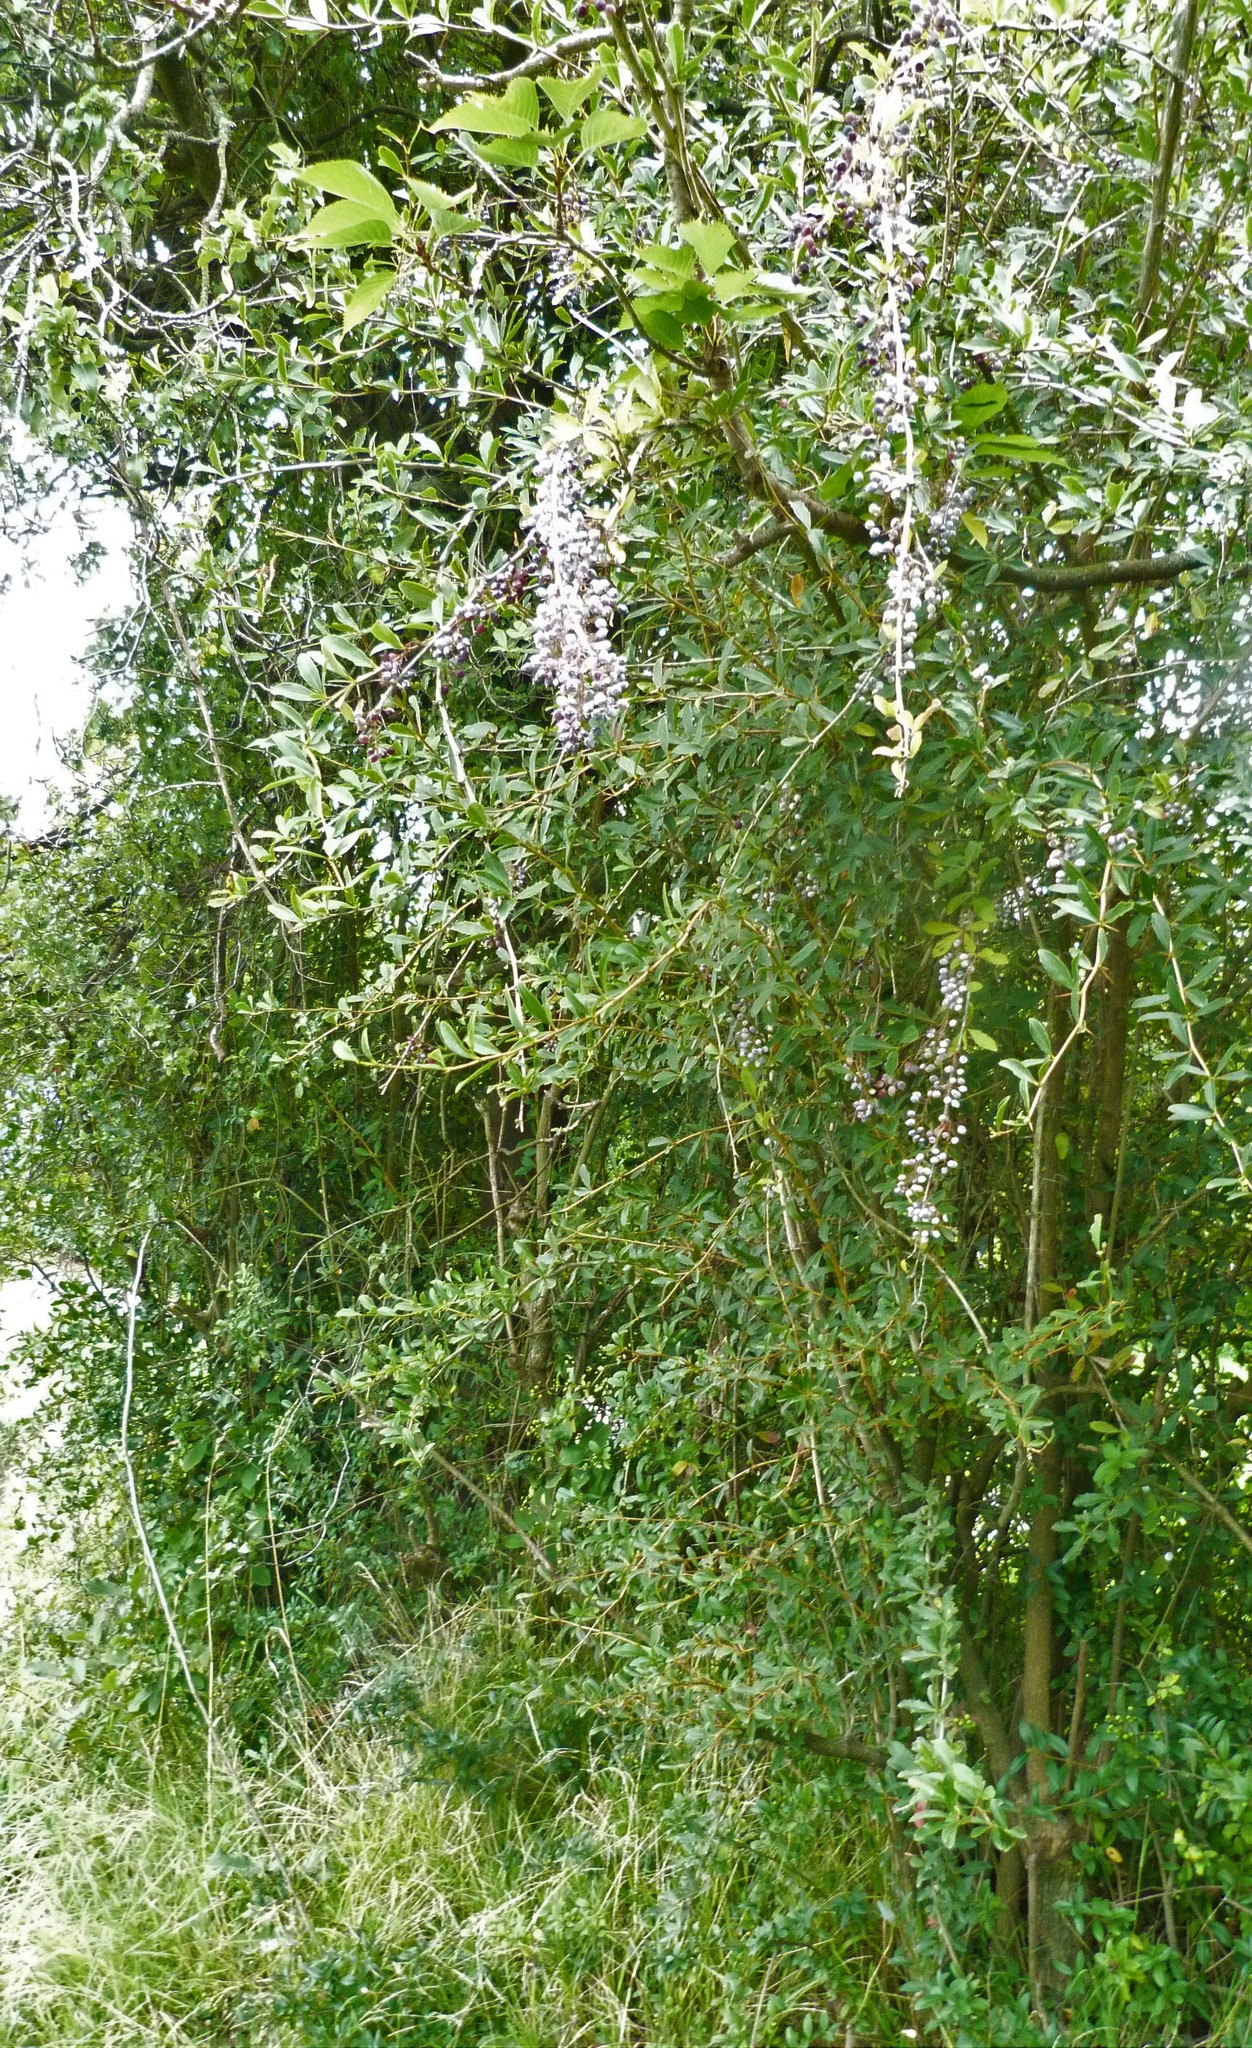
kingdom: Plantae
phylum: Tracheophyta
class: Magnoliopsida
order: Ranunculales
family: Berberidaceae
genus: Berberis
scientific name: Berberis glaucocarpa
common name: Great barberry
